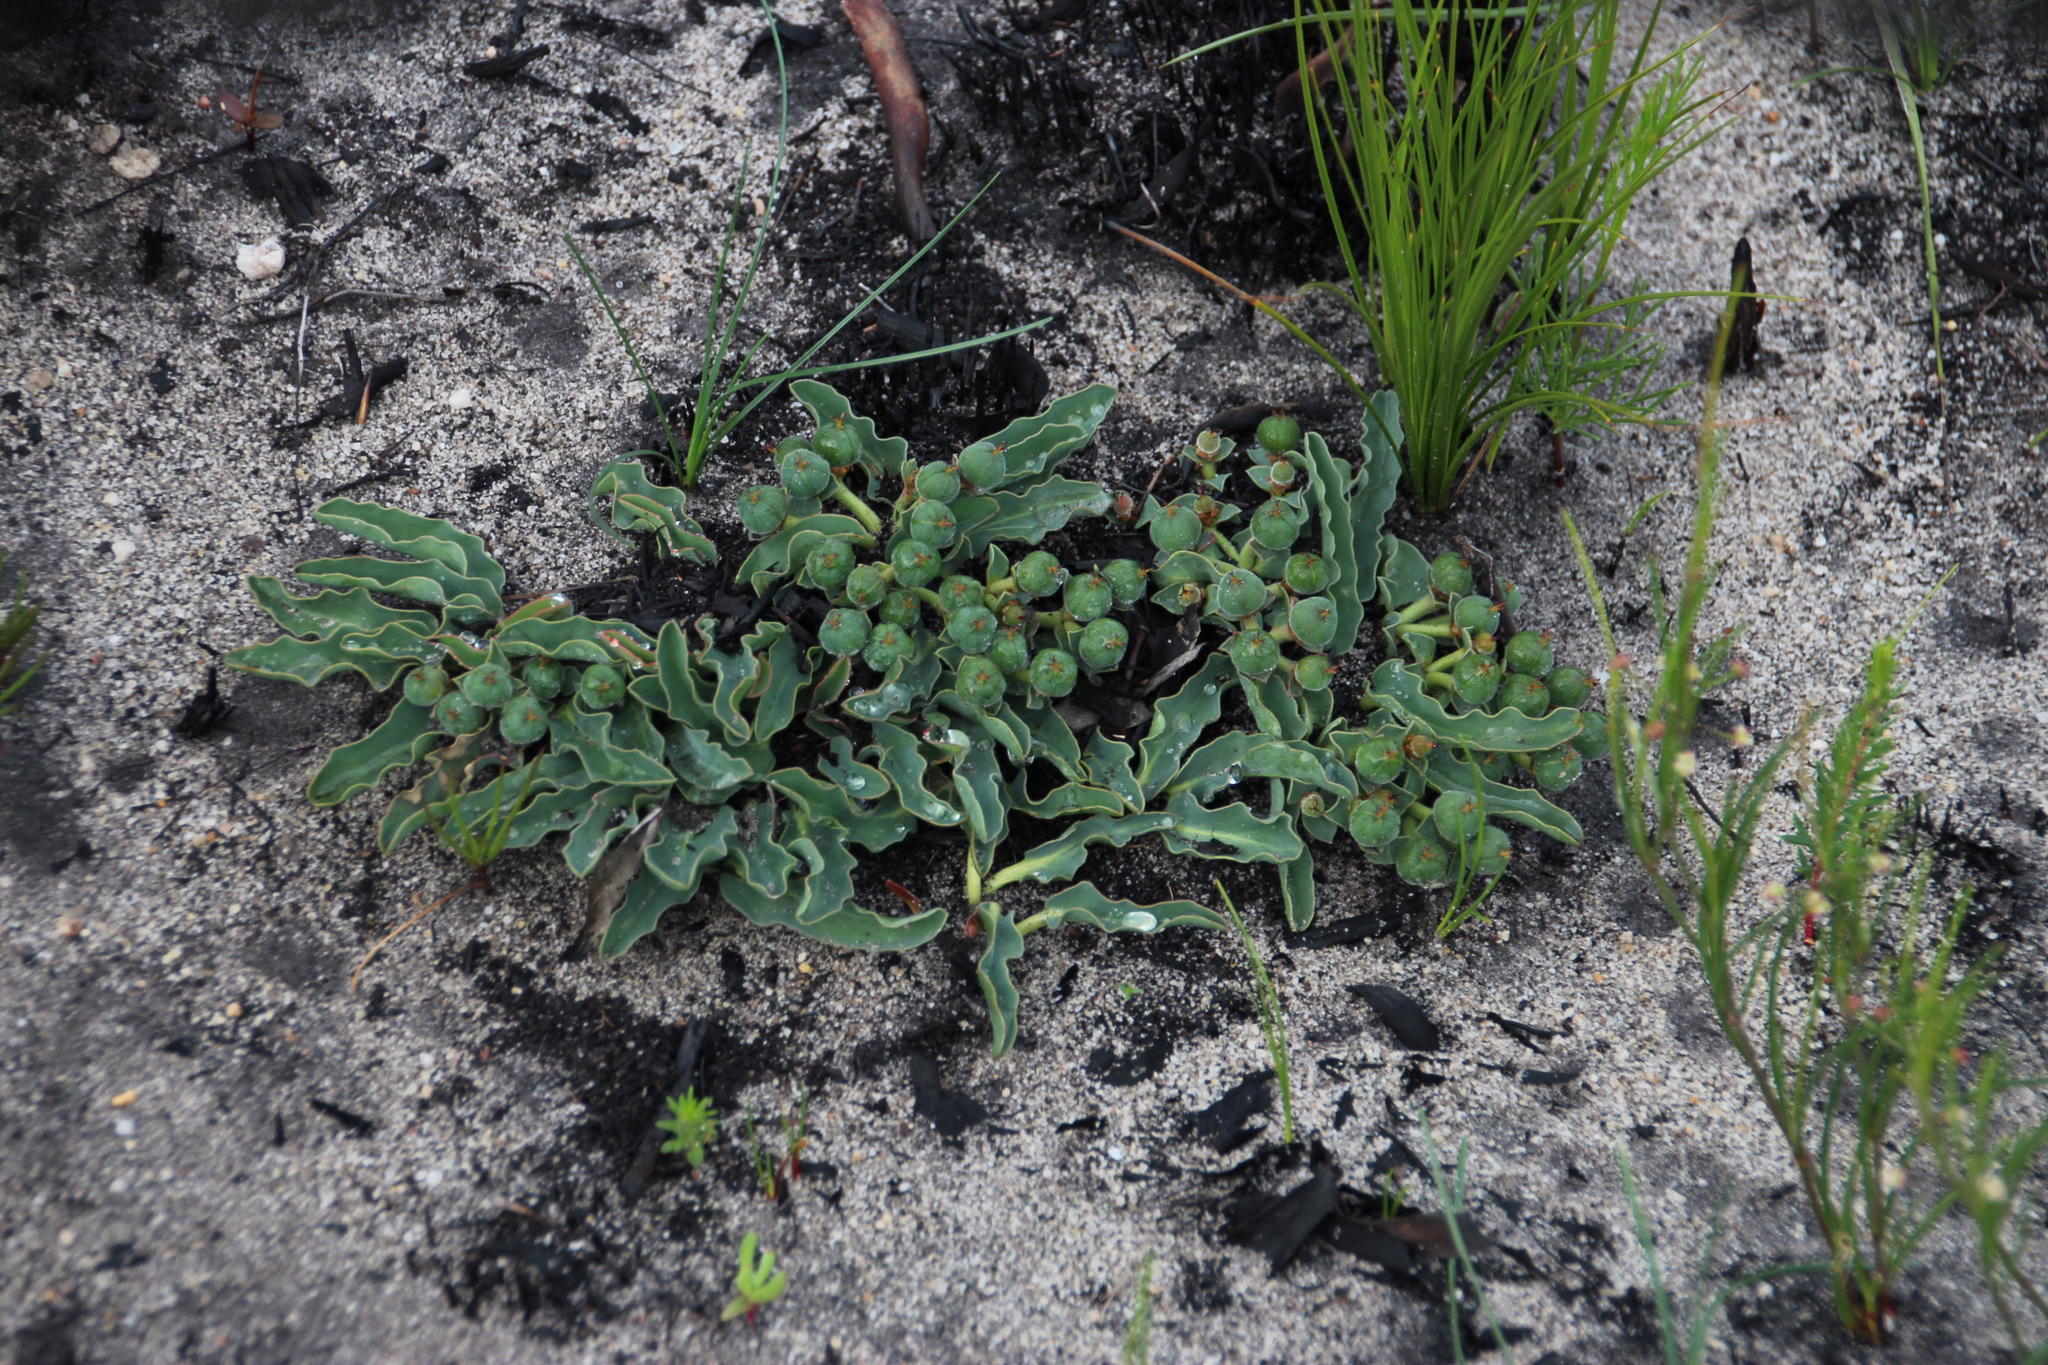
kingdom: Plantae
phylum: Tracheophyta
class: Magnoliopsida
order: Malpighiales
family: Euphorbiaceae
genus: Euphorbia
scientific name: Euphorbia tuberosa
